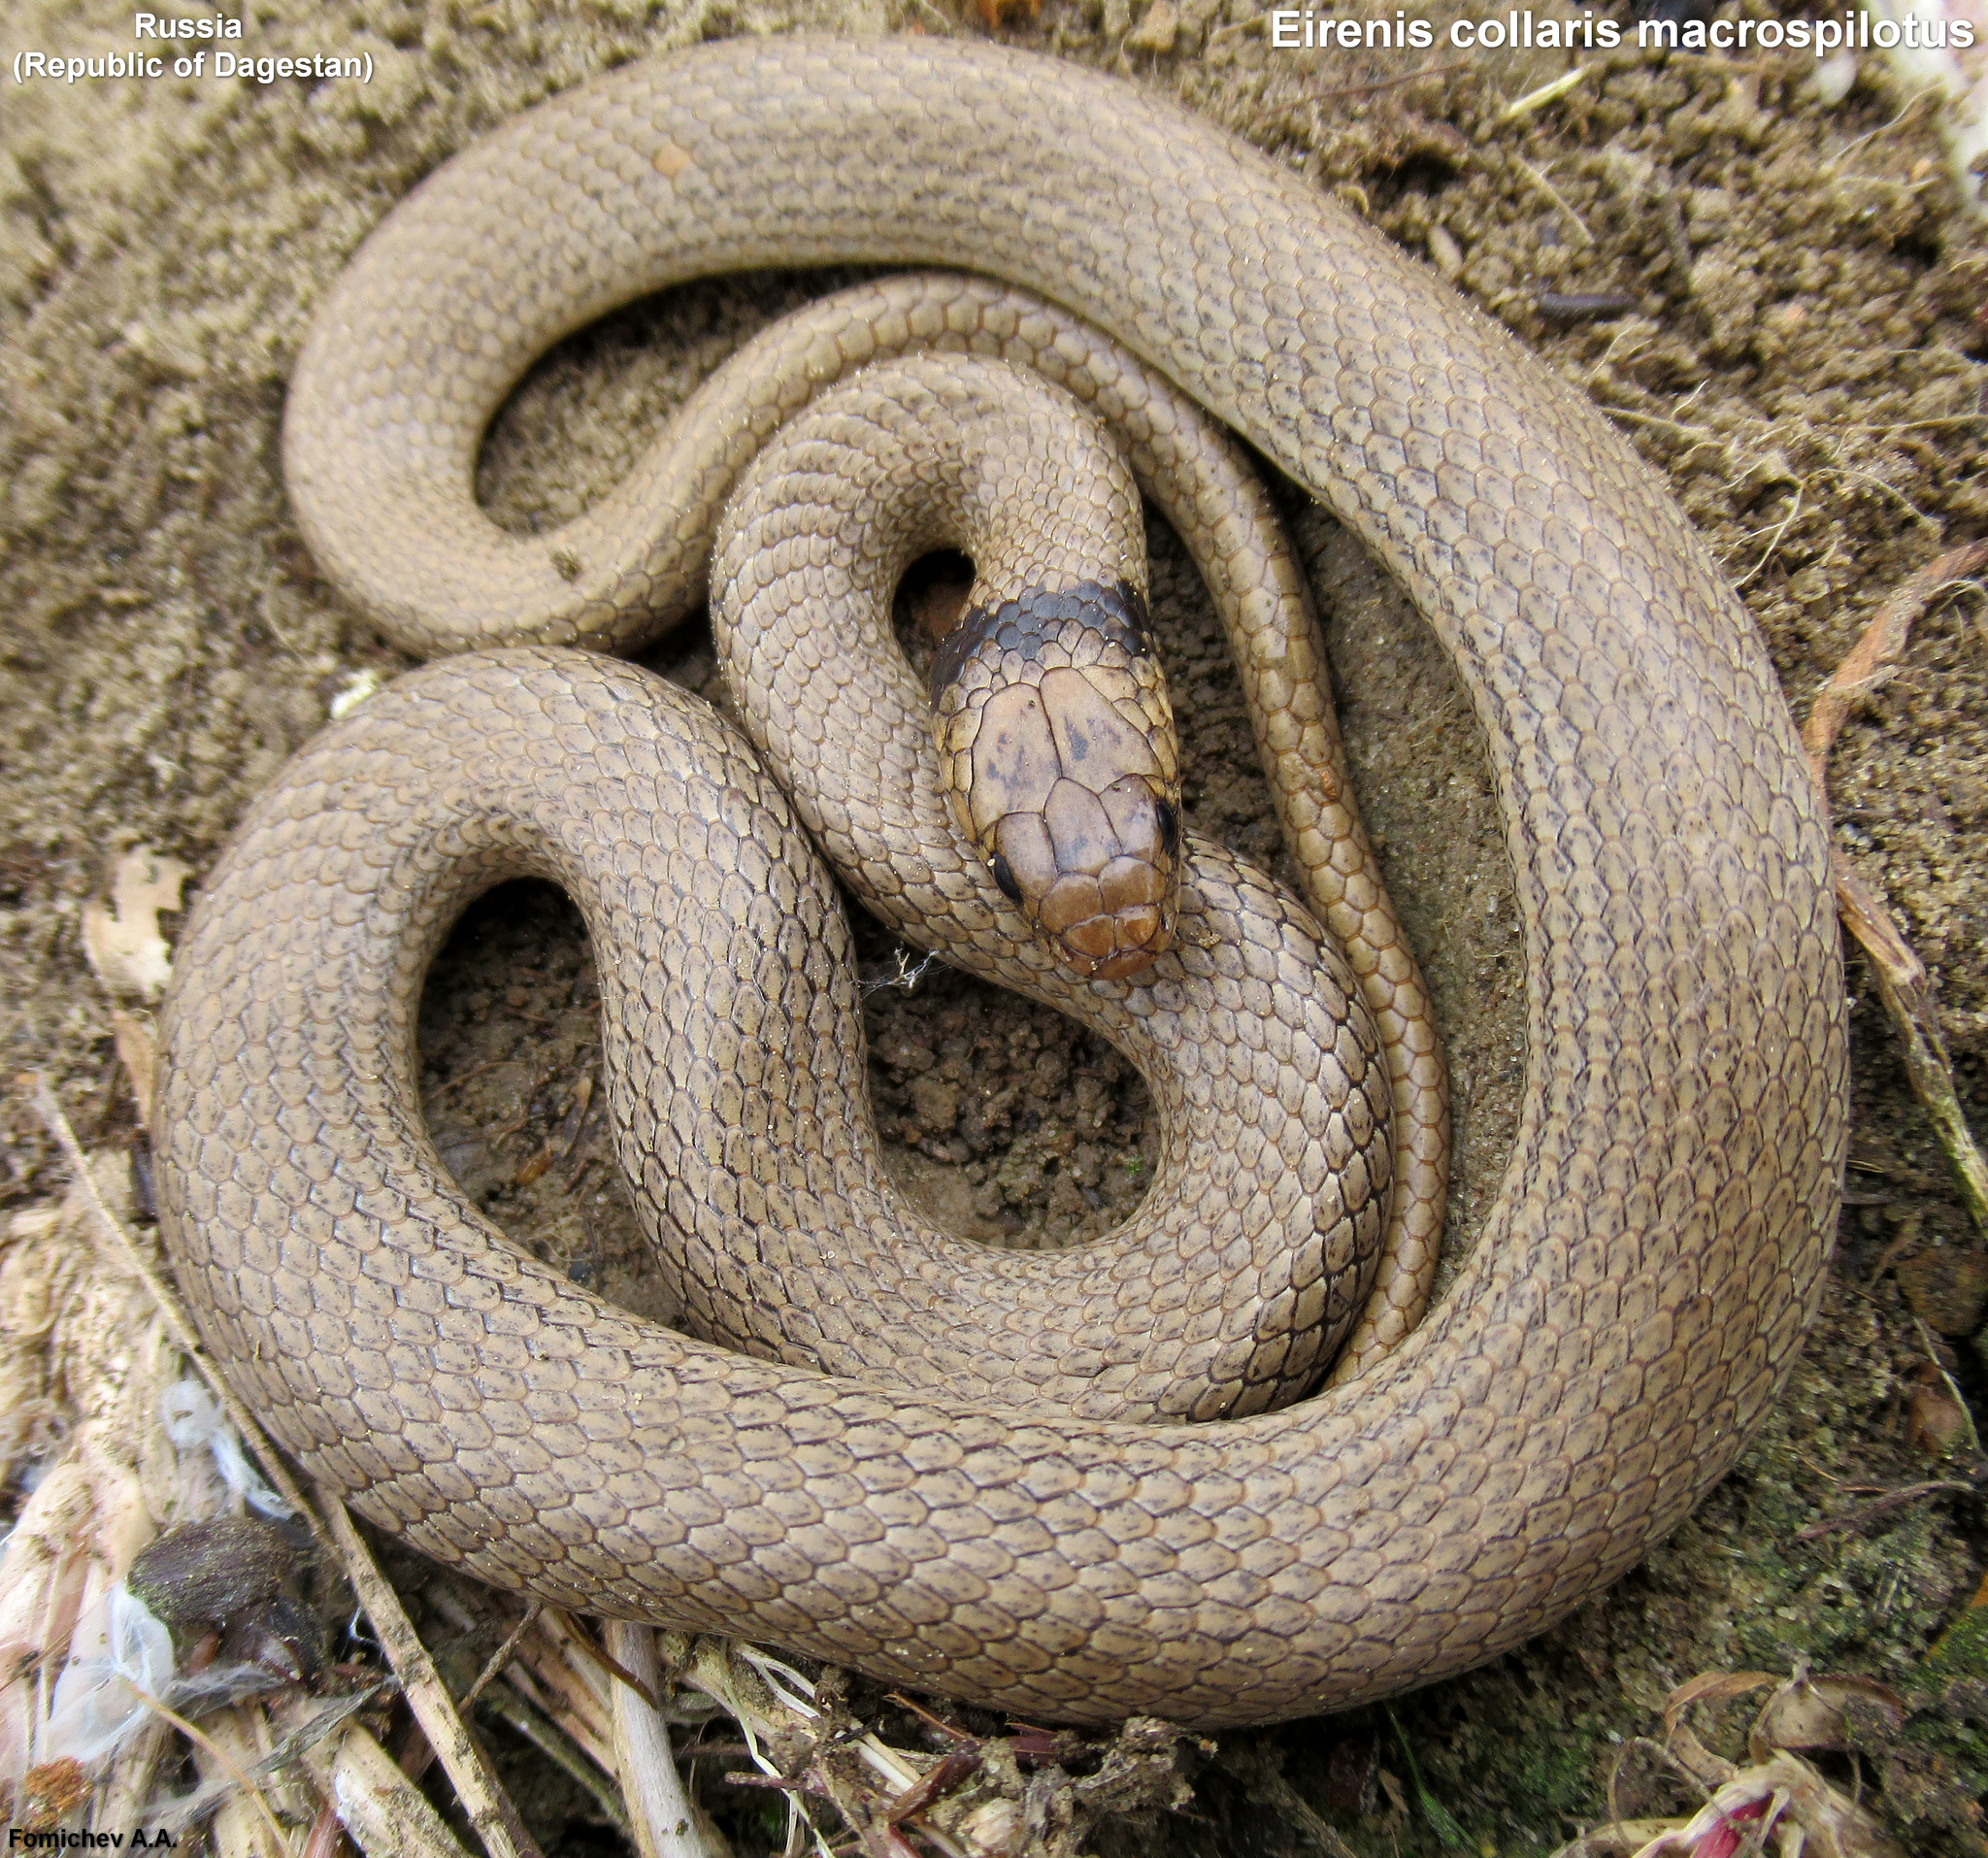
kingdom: Animalia
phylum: Chordata
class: Squamata
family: Colubridae
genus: Eirenis
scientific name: Eirenis collaris
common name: Collared dwarf racer
